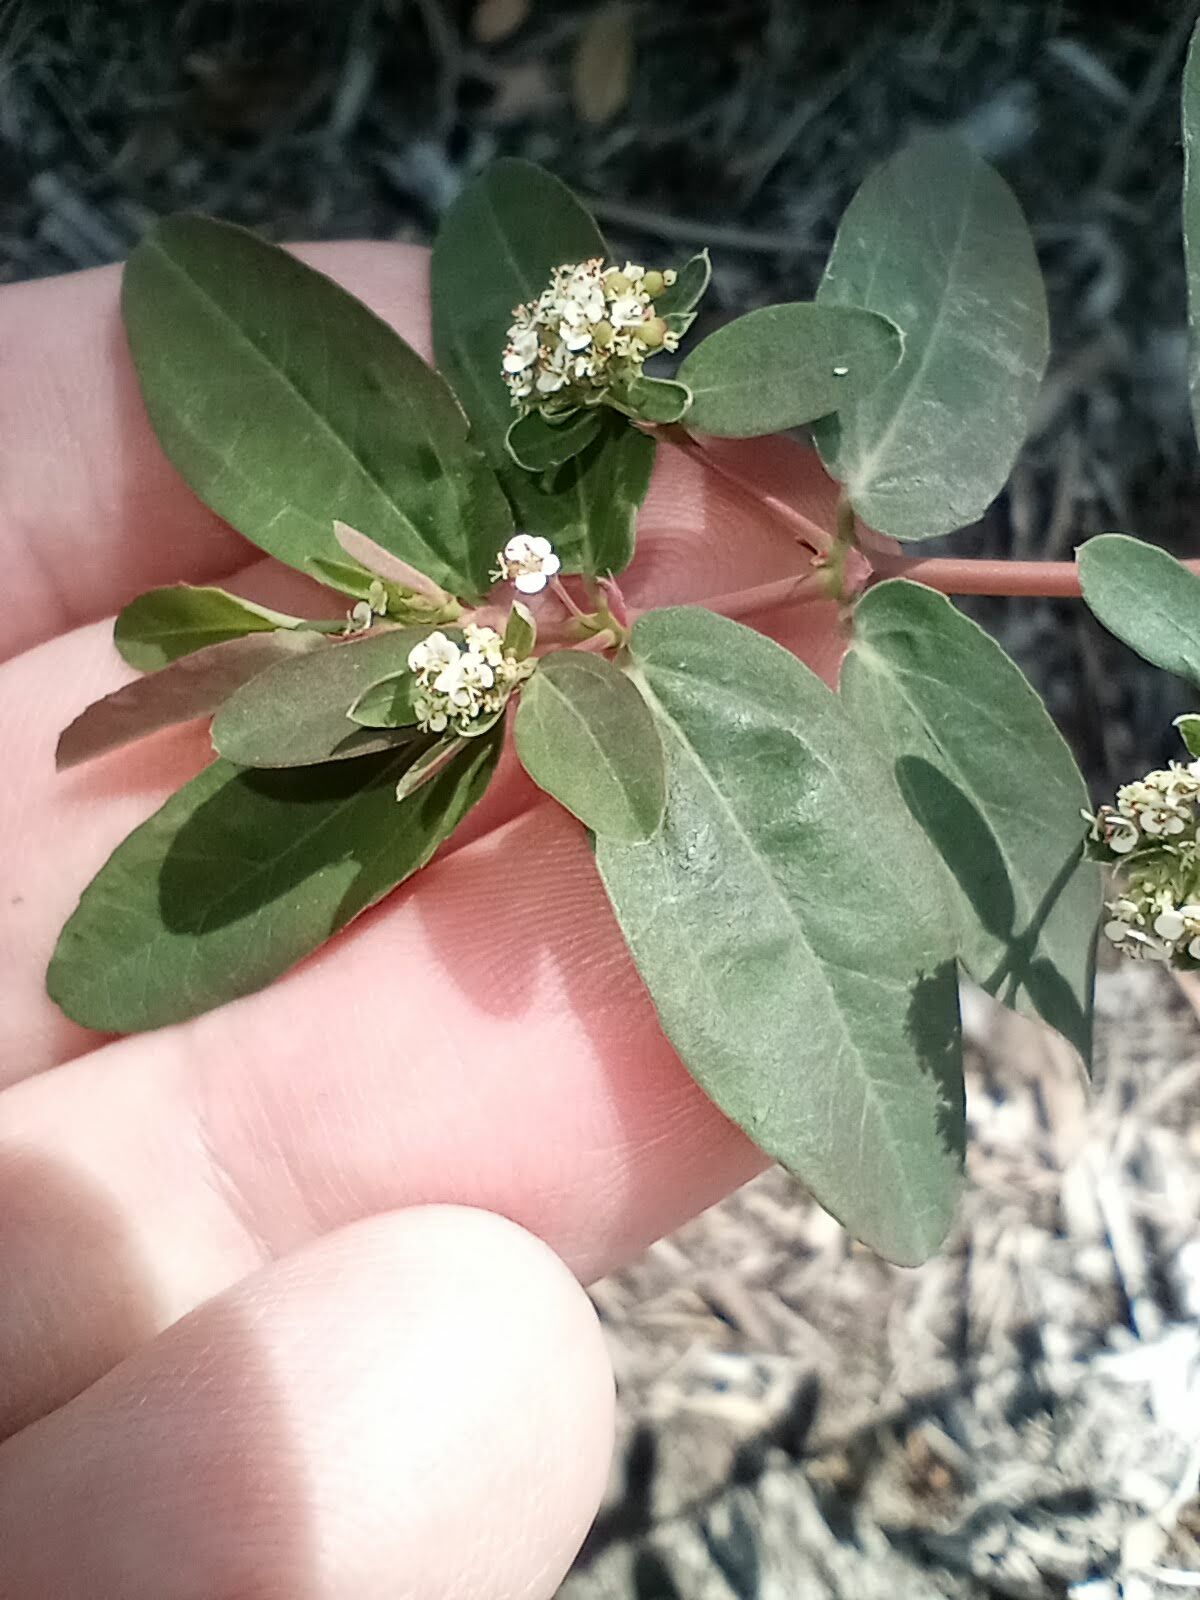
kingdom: Plantae
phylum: Tracheophyta
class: Magnoliopsida
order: Malpighiales
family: Euphorbiaceae
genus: Euphorbia
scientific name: Euphorbia hypericifolia
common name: Graceful sandmat
